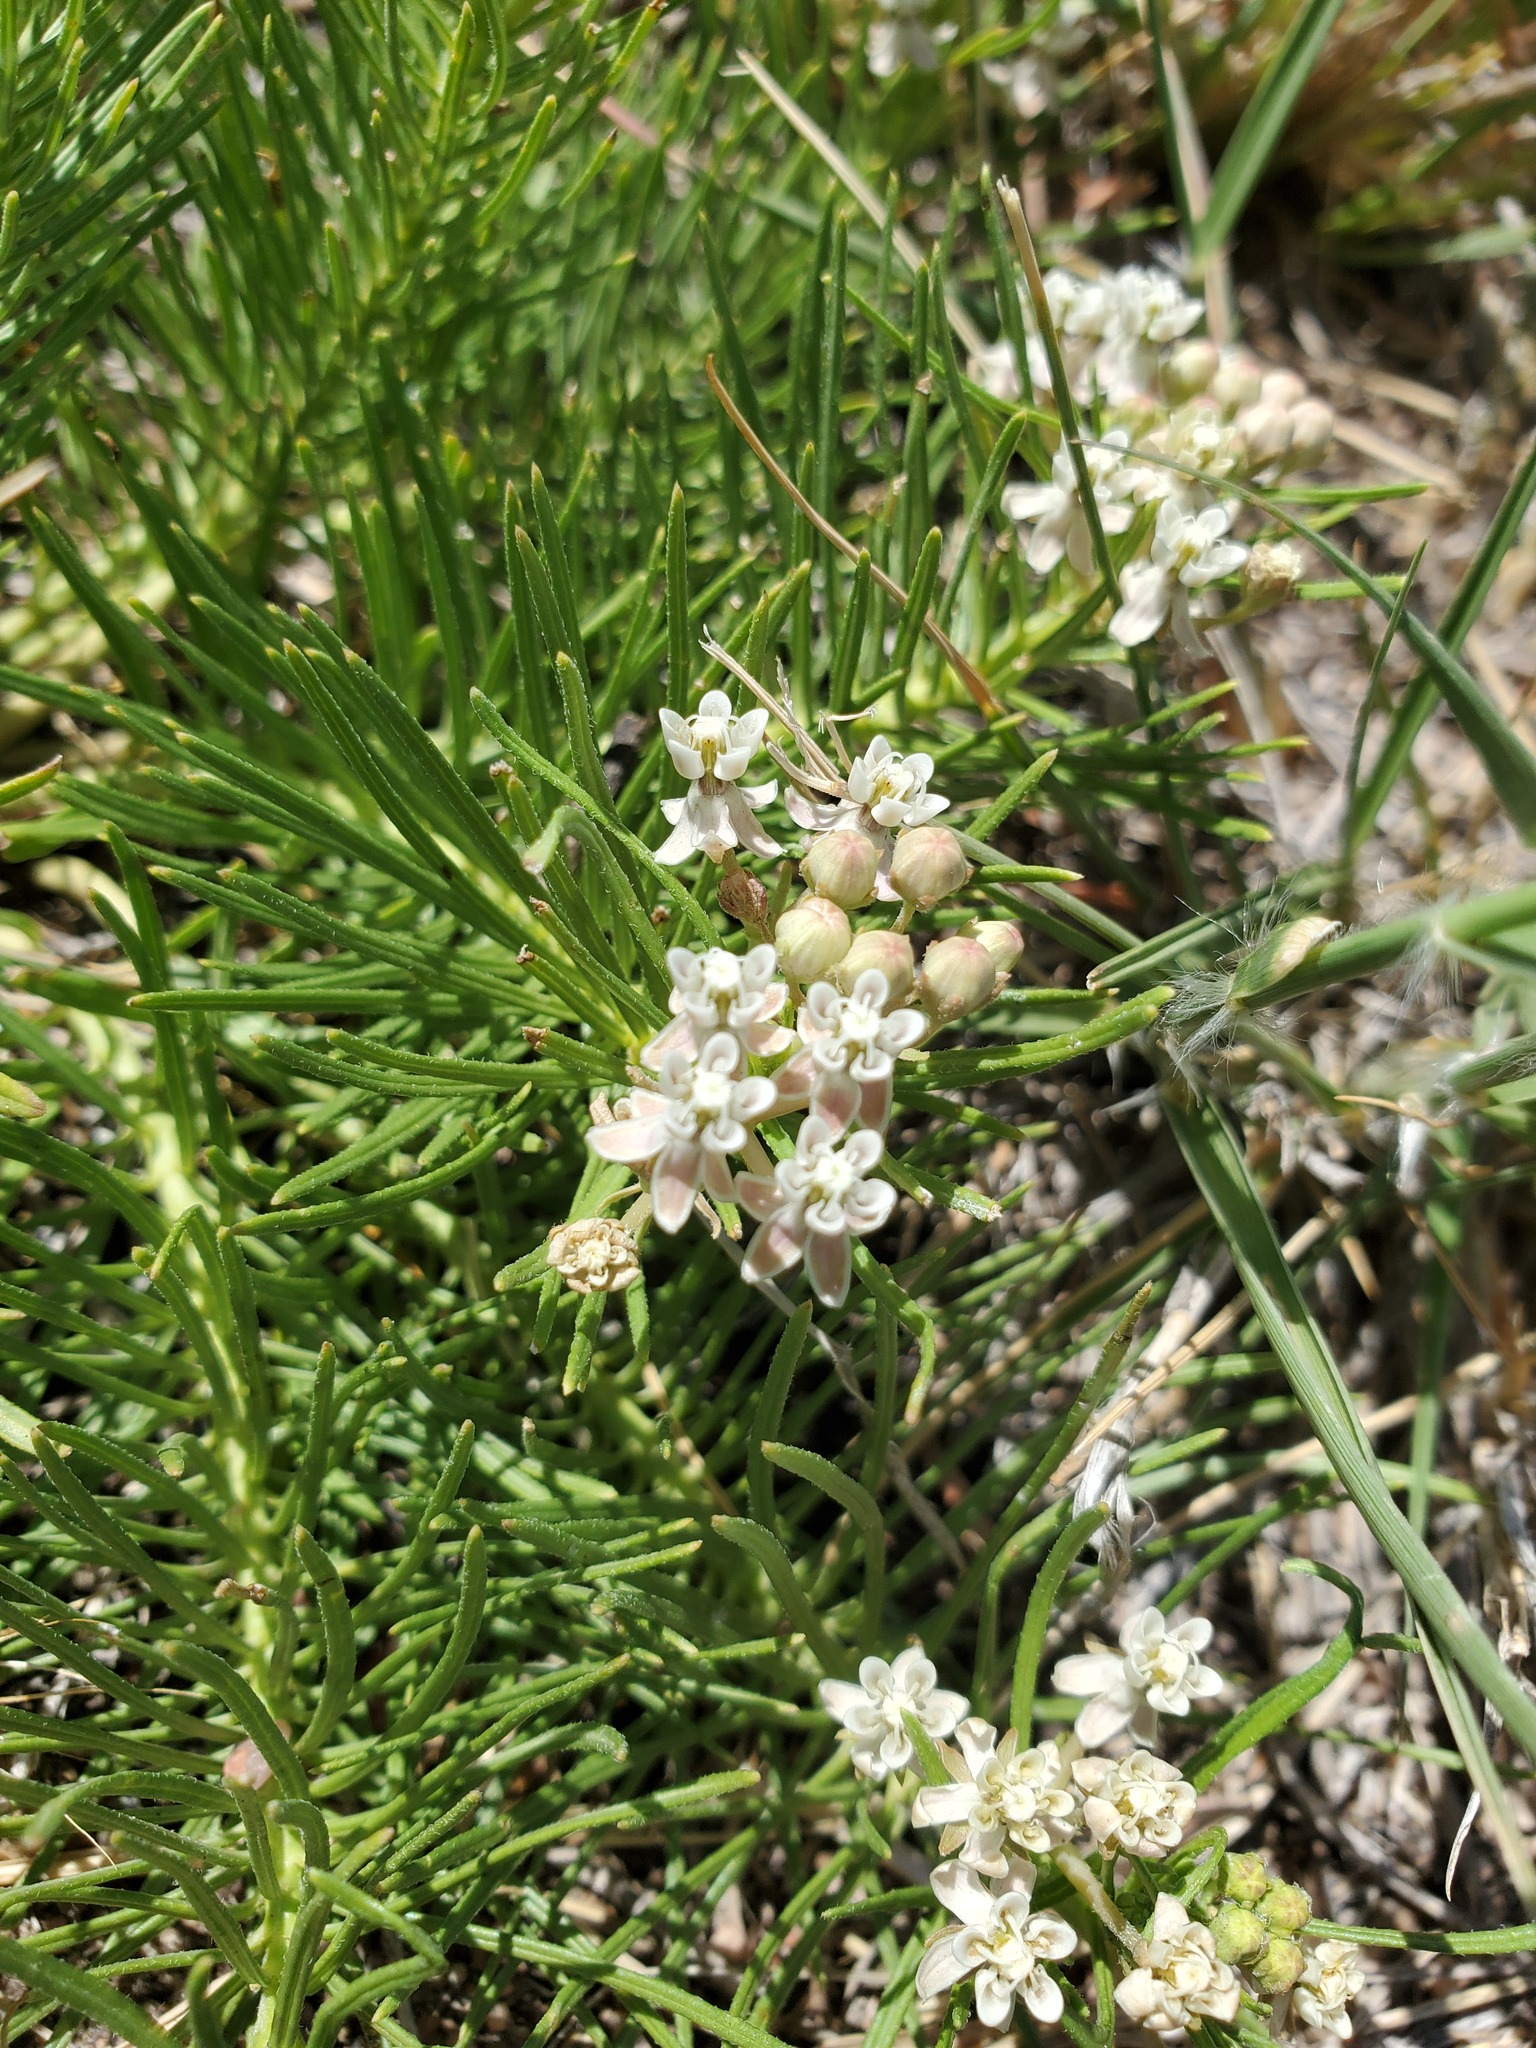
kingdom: Plantae
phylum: Tracheophyta
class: Magnoliopsida
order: Gentianales
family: Apocynaceae
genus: Asclepias
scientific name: Asclepias pumila
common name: Dwarf milkweed
